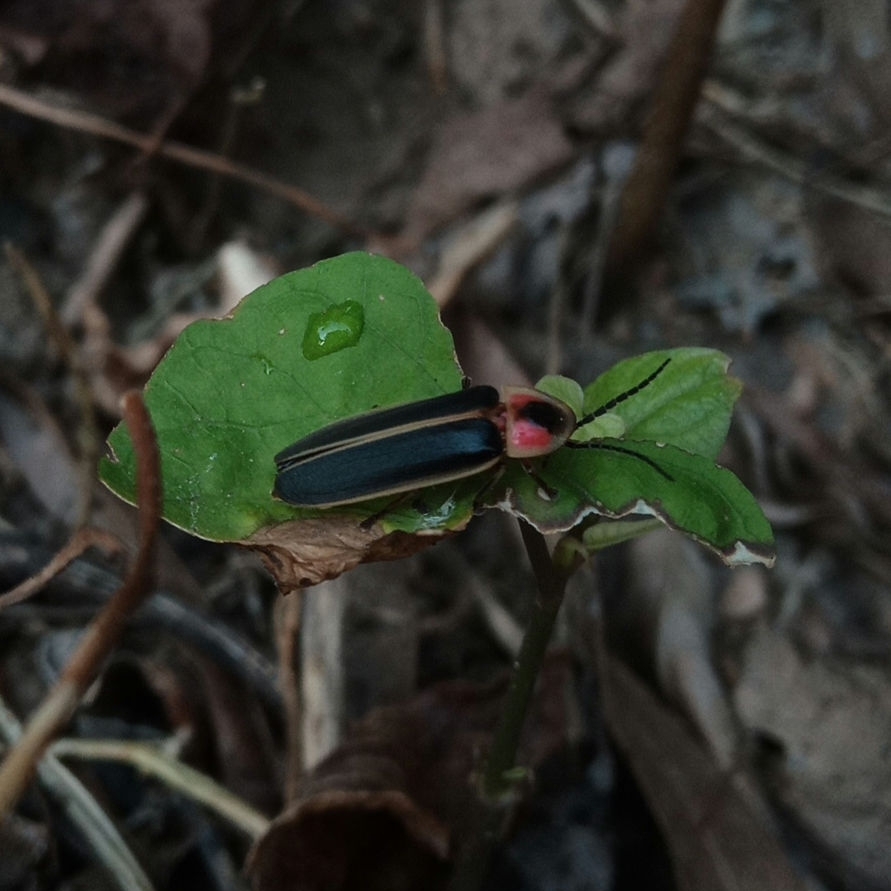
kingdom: Animalia
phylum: Arthropoda
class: Insecta
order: Coleoptera
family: Lampyridae
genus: Photinus
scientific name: Photinus pyralis
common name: Big dipper firefly
